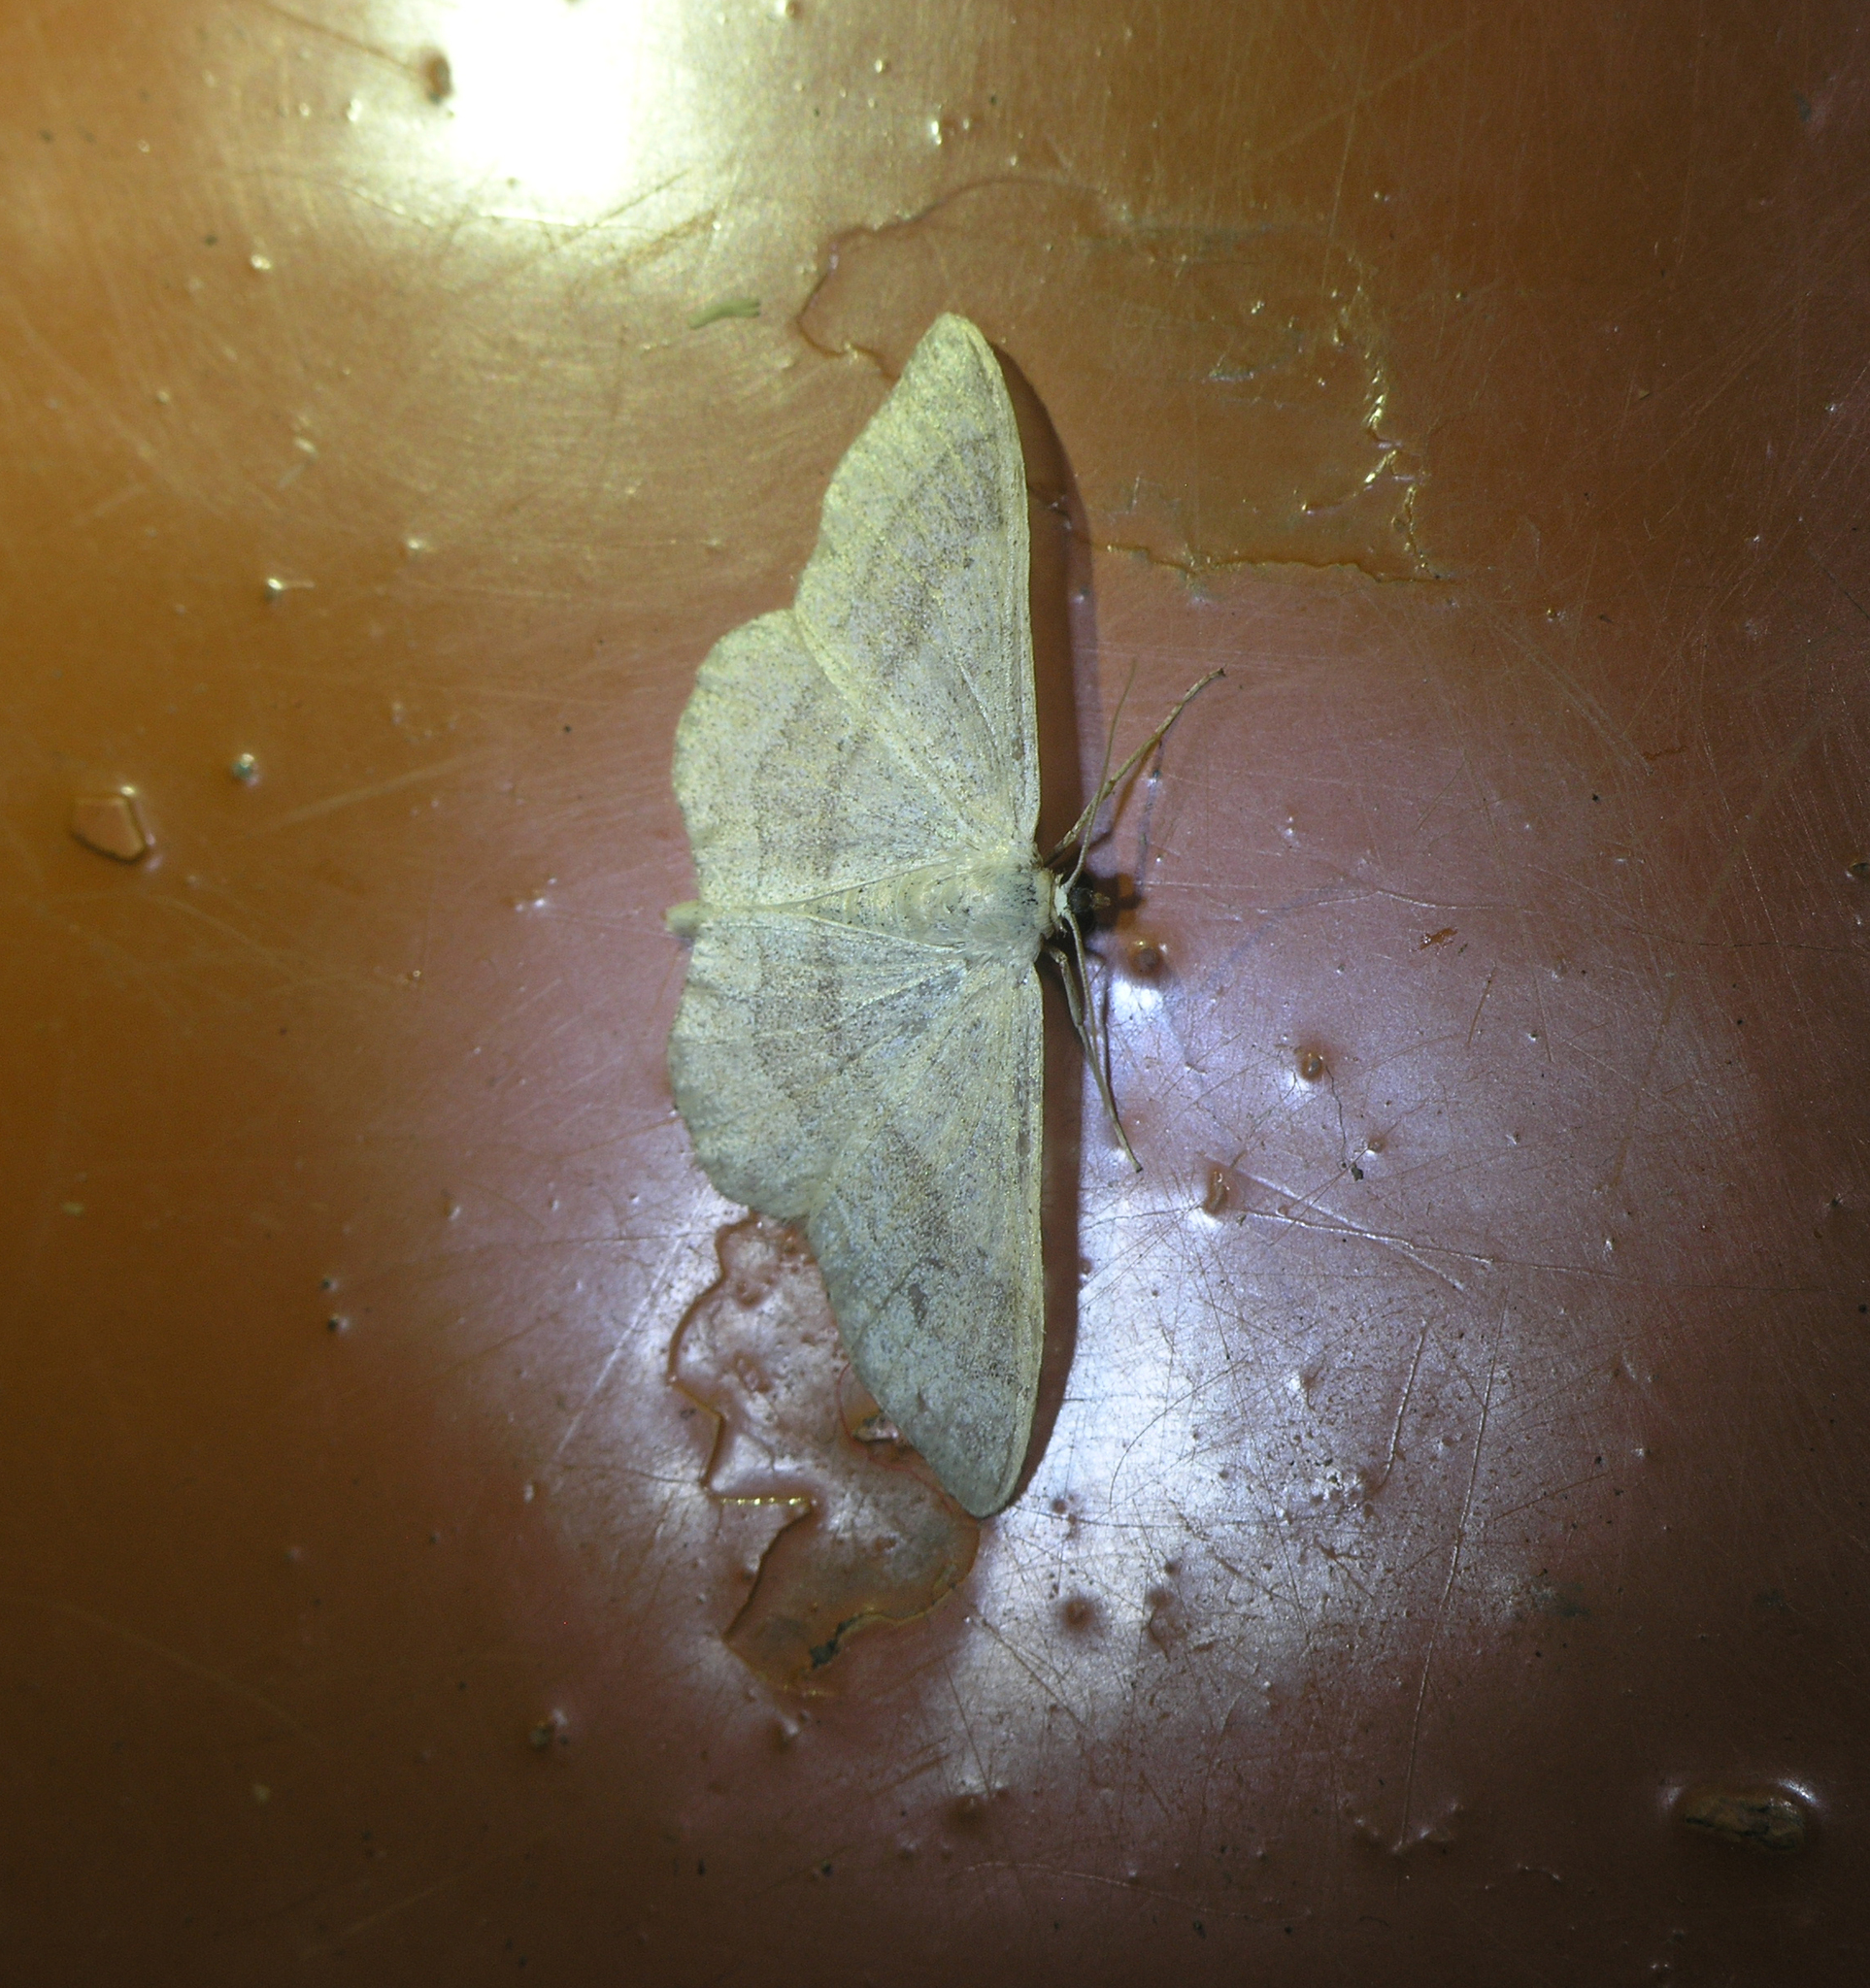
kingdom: Animalia
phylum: Arthropoda
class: Insecta
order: Lepidoptera
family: Geometridae
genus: Idaea
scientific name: Idaea aversata
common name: Riband wave
